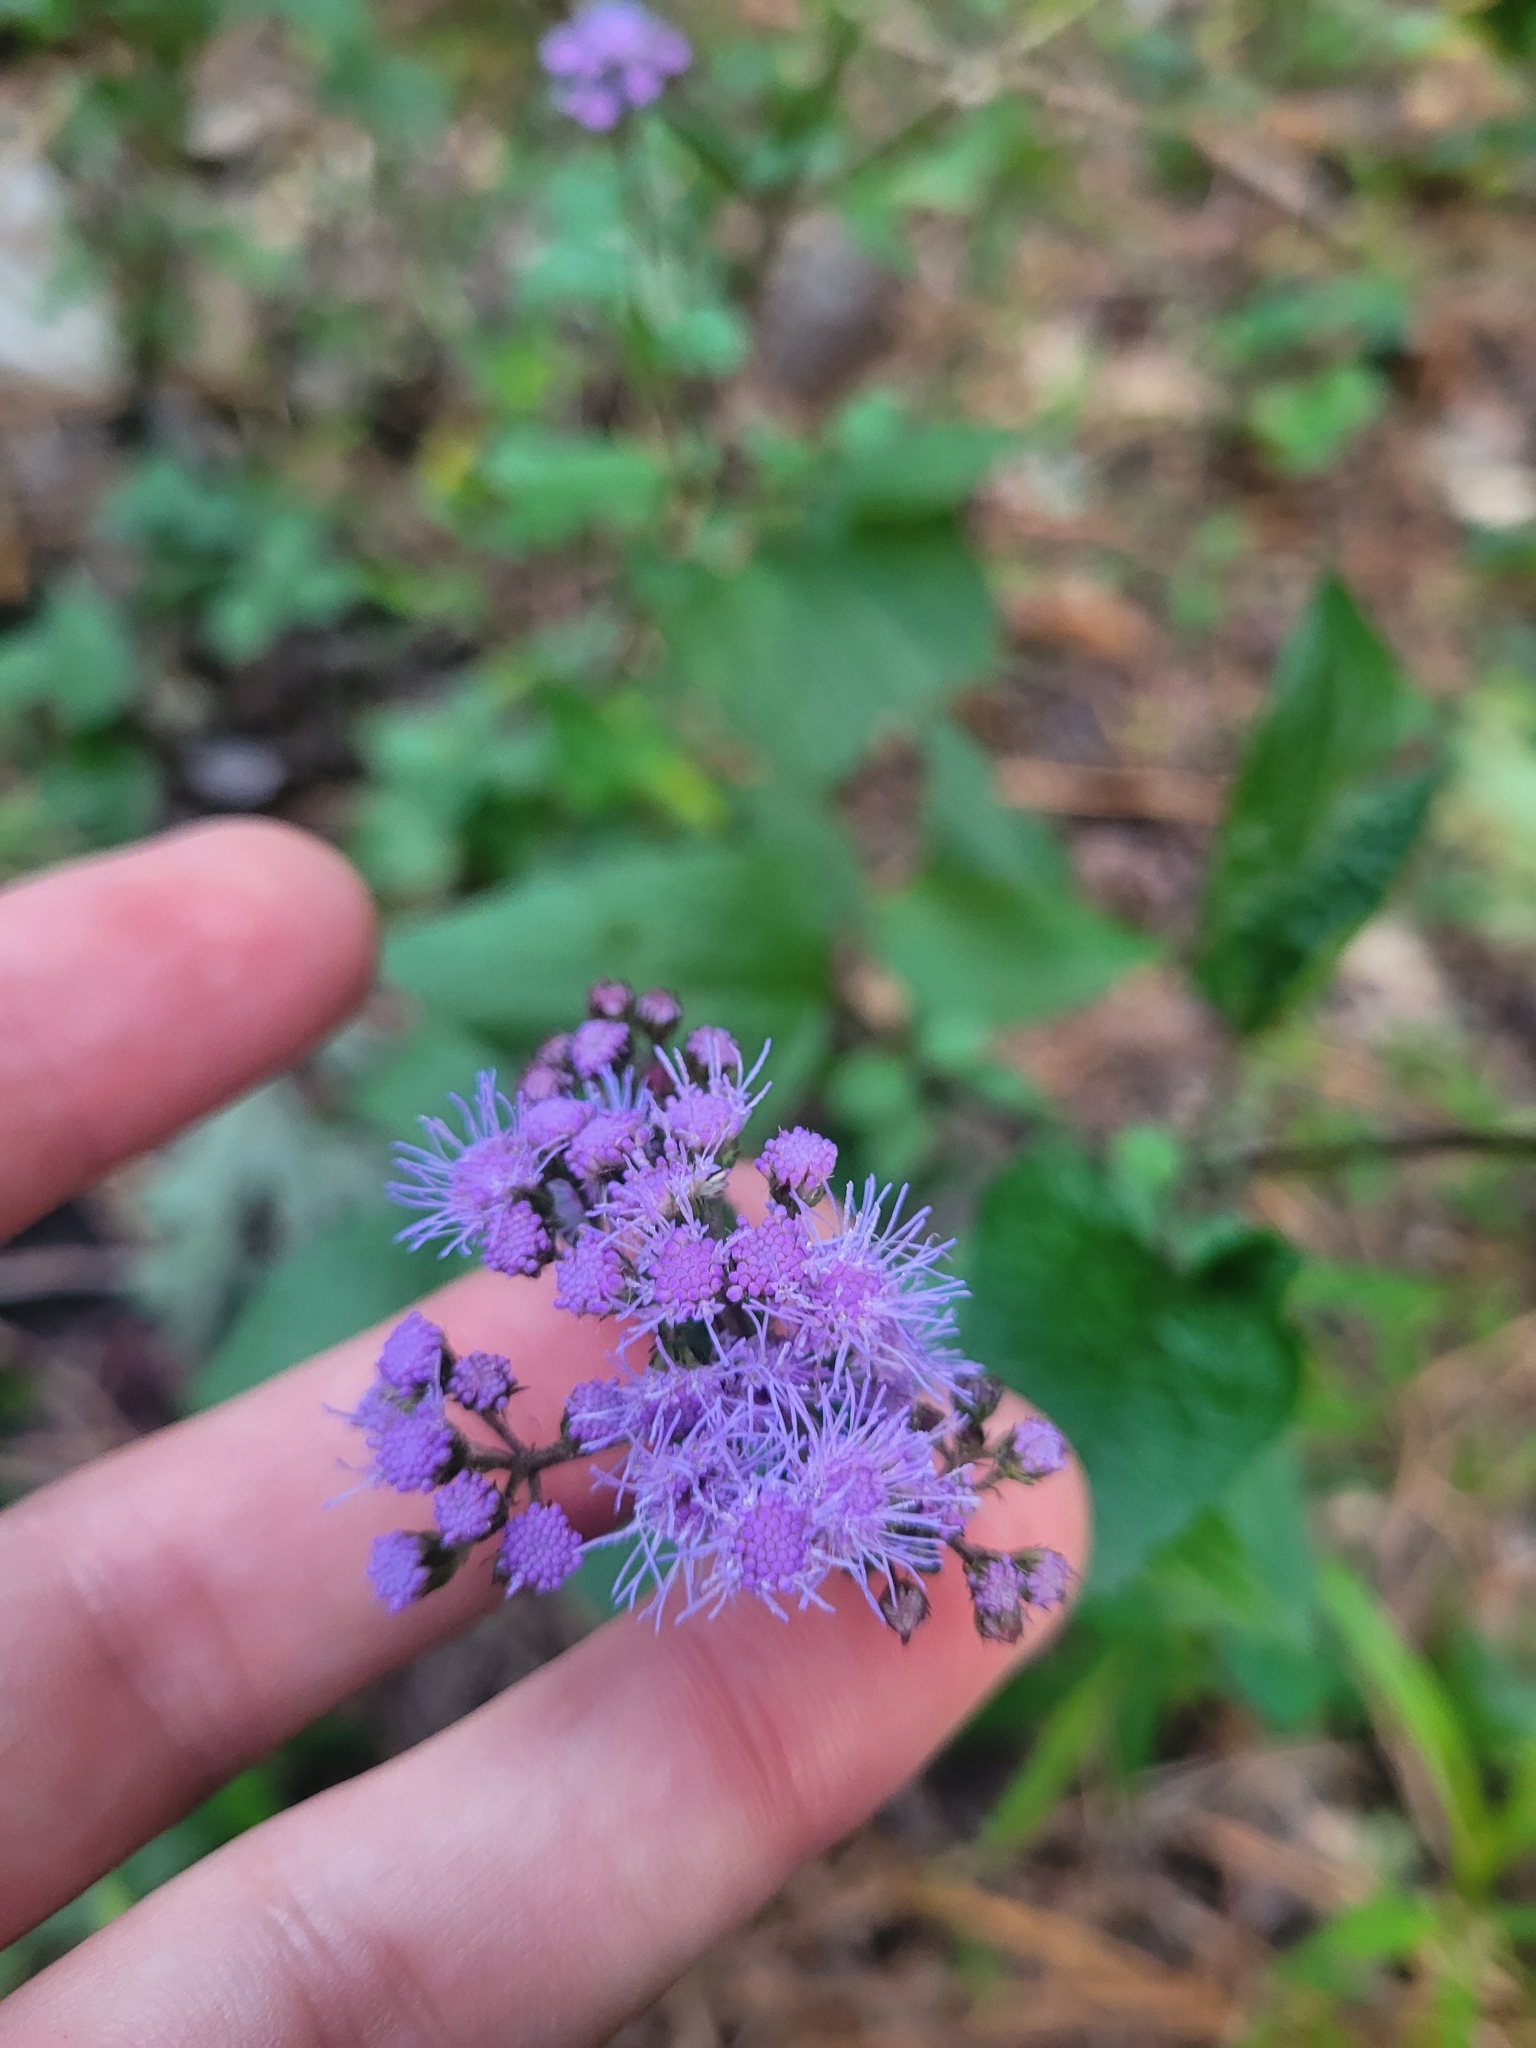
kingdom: Plantae
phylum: Tracheophyta
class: Magnoliopsida
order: Asterales
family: Asteraceae
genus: Conoclinium
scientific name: Conoclinium coelestinum
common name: Blue mistflower
